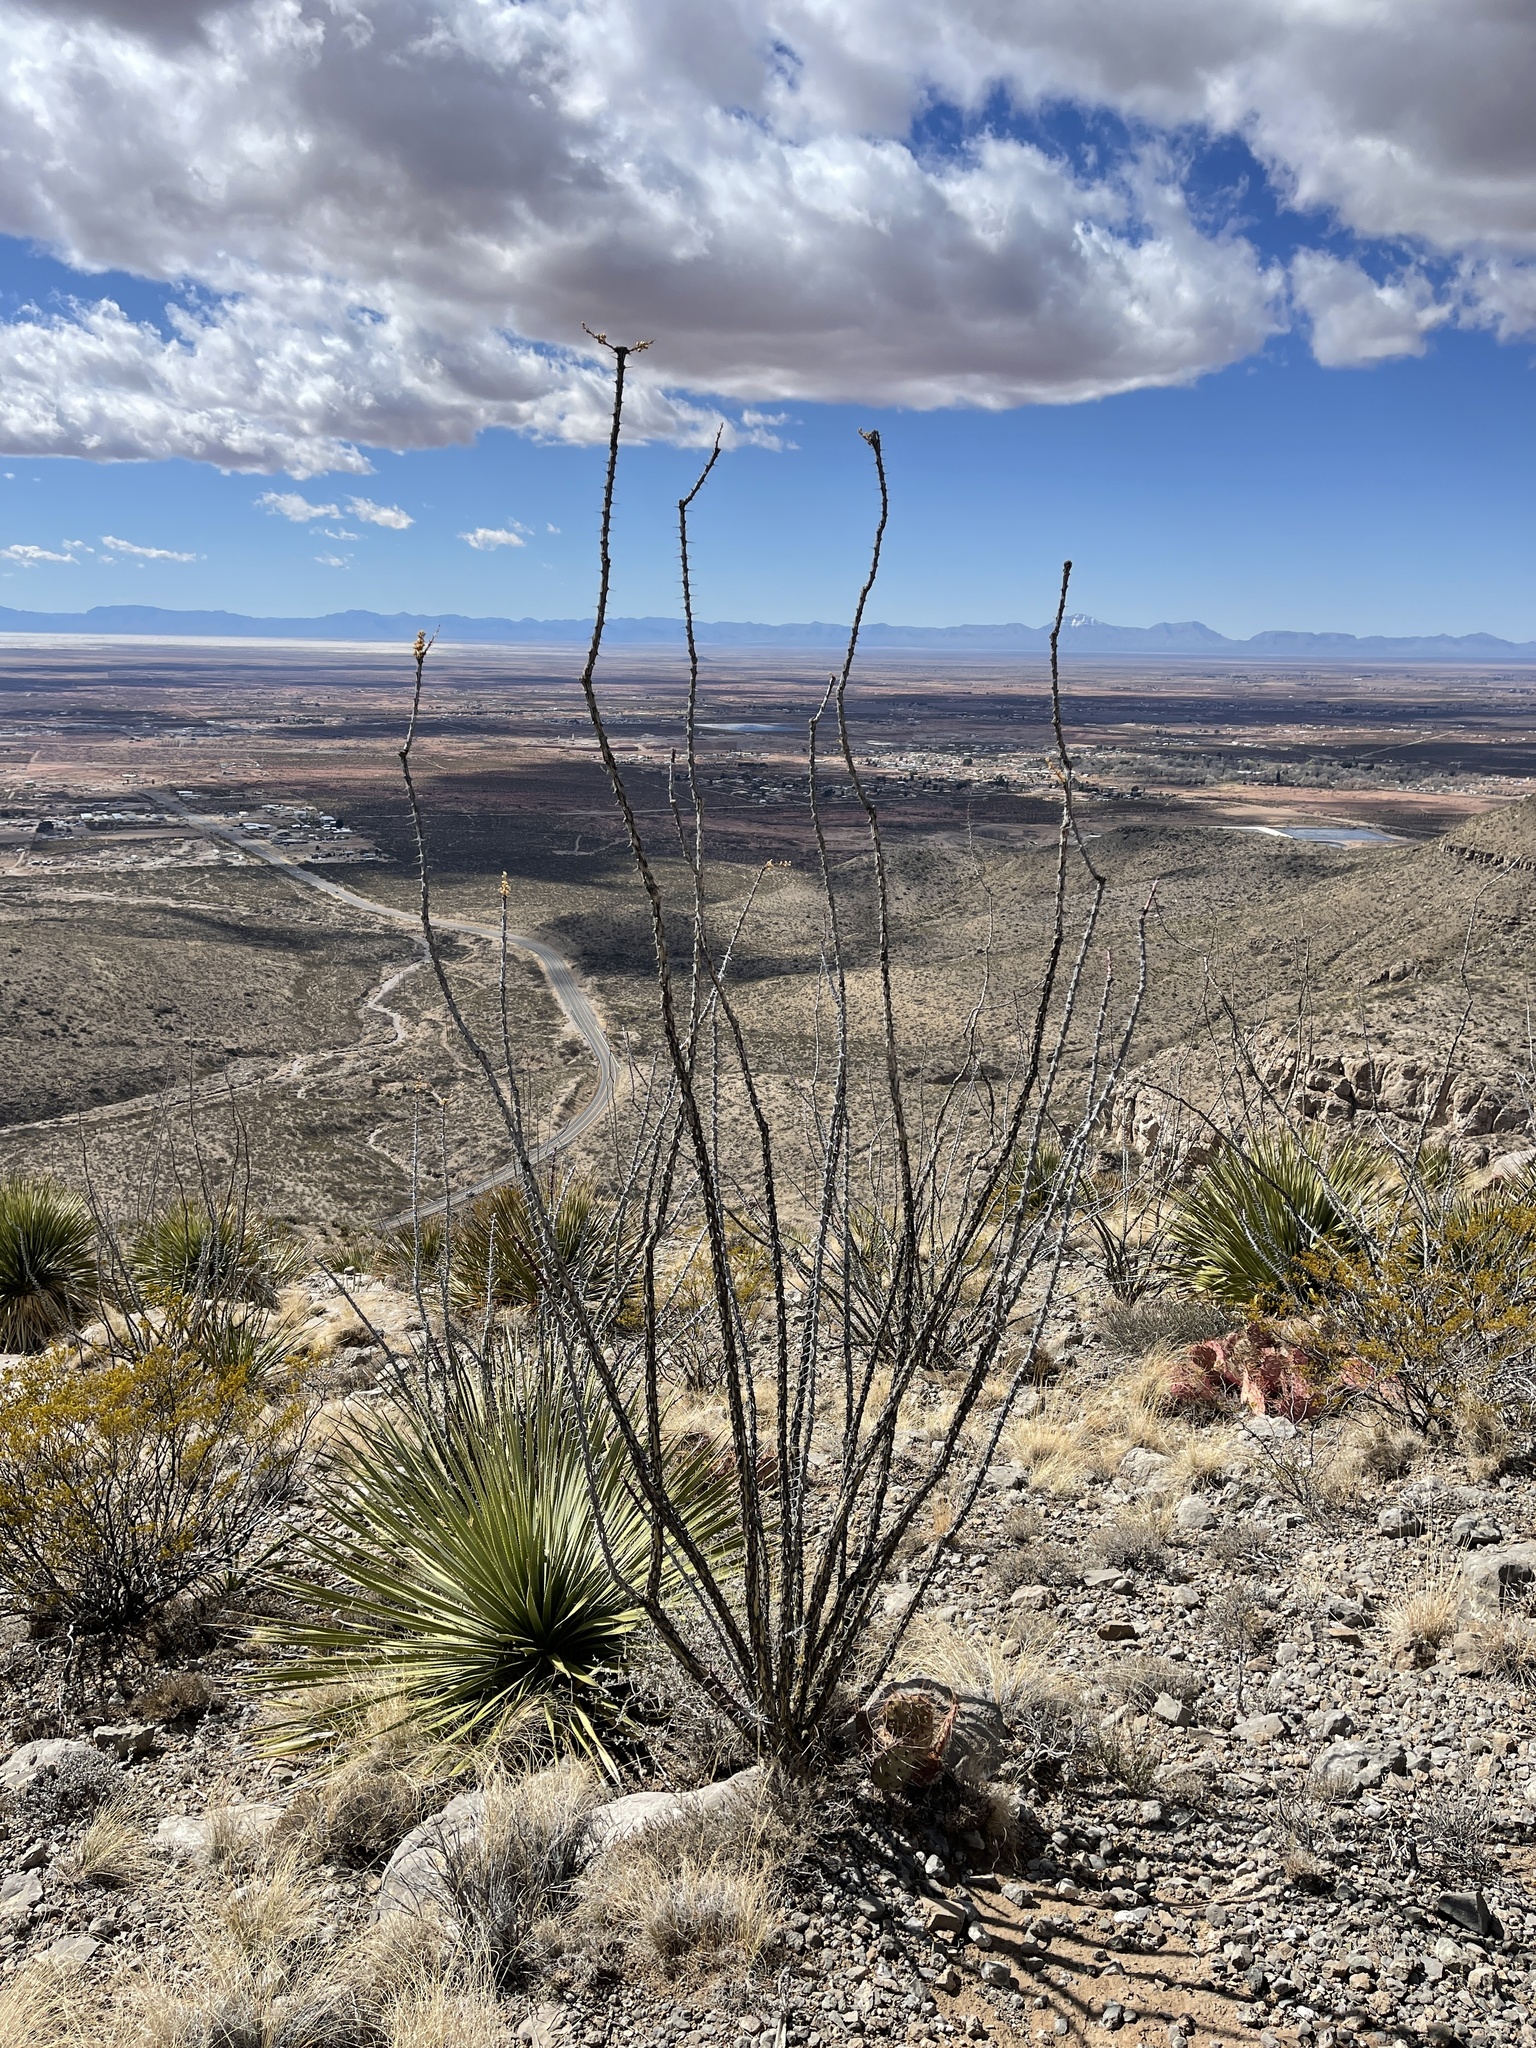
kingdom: Plantae
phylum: Tracheophyta
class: Magnoliopsida
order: Ericales
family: Fouquieriaceae
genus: Fouquieria
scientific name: Fouquieria splendens
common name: Vine-cactus
